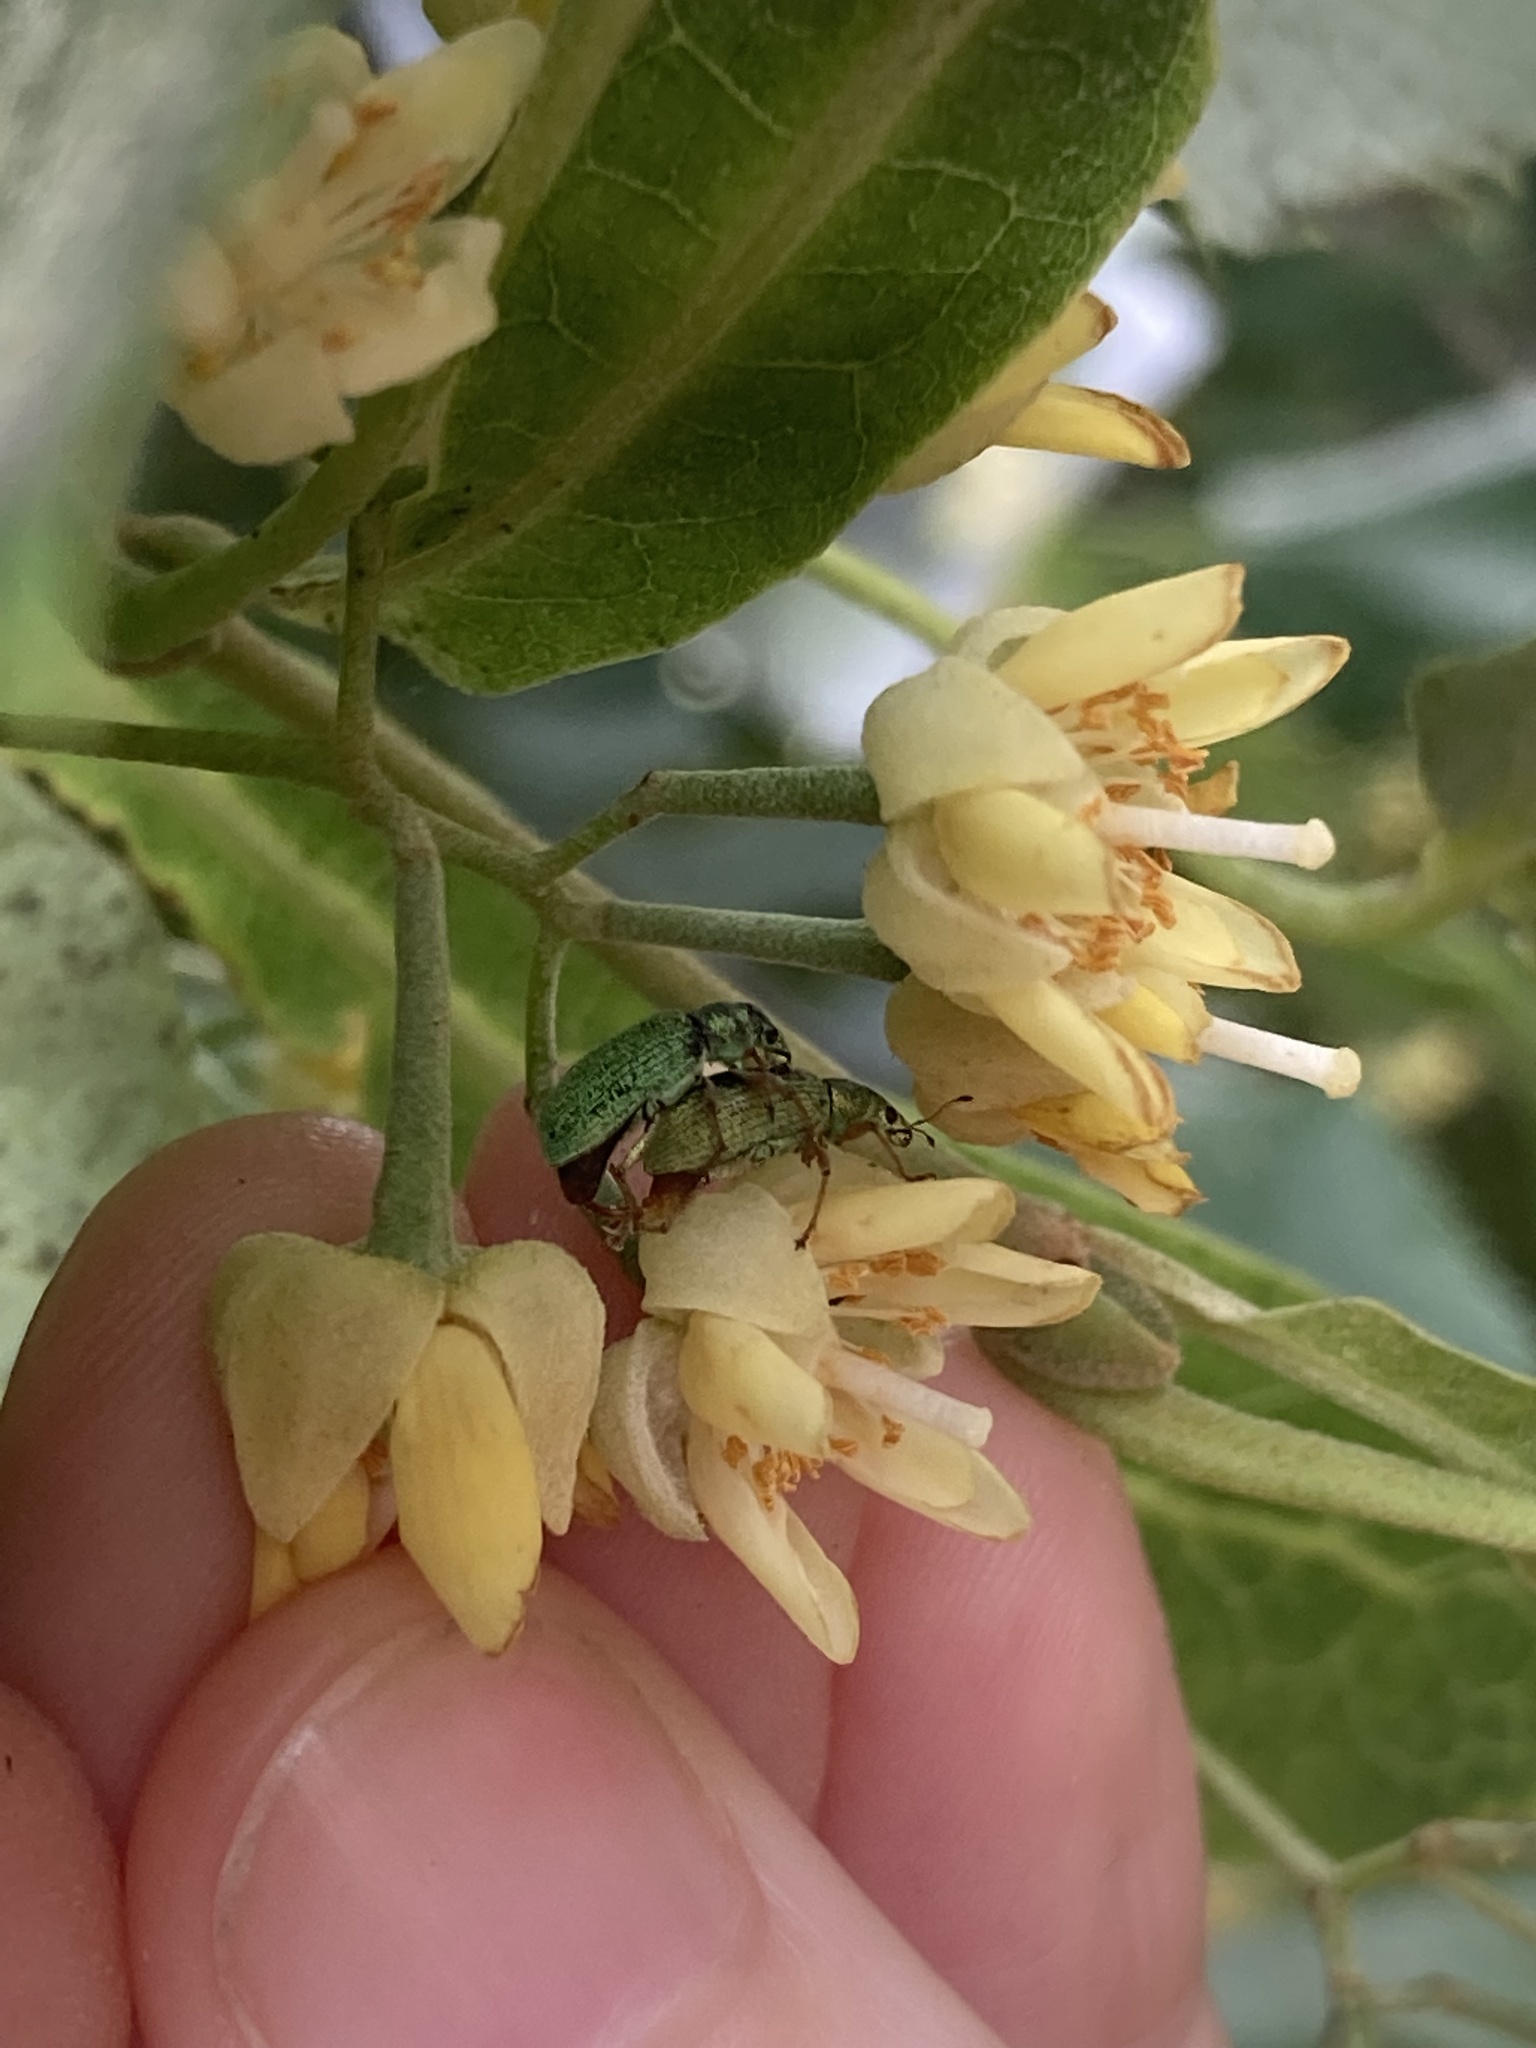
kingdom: Animalia
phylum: Arthropoda
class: Insecta
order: Coleoptera
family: Curculionidae
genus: Polydrusus
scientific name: Polydrusus formosus
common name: Weevil
